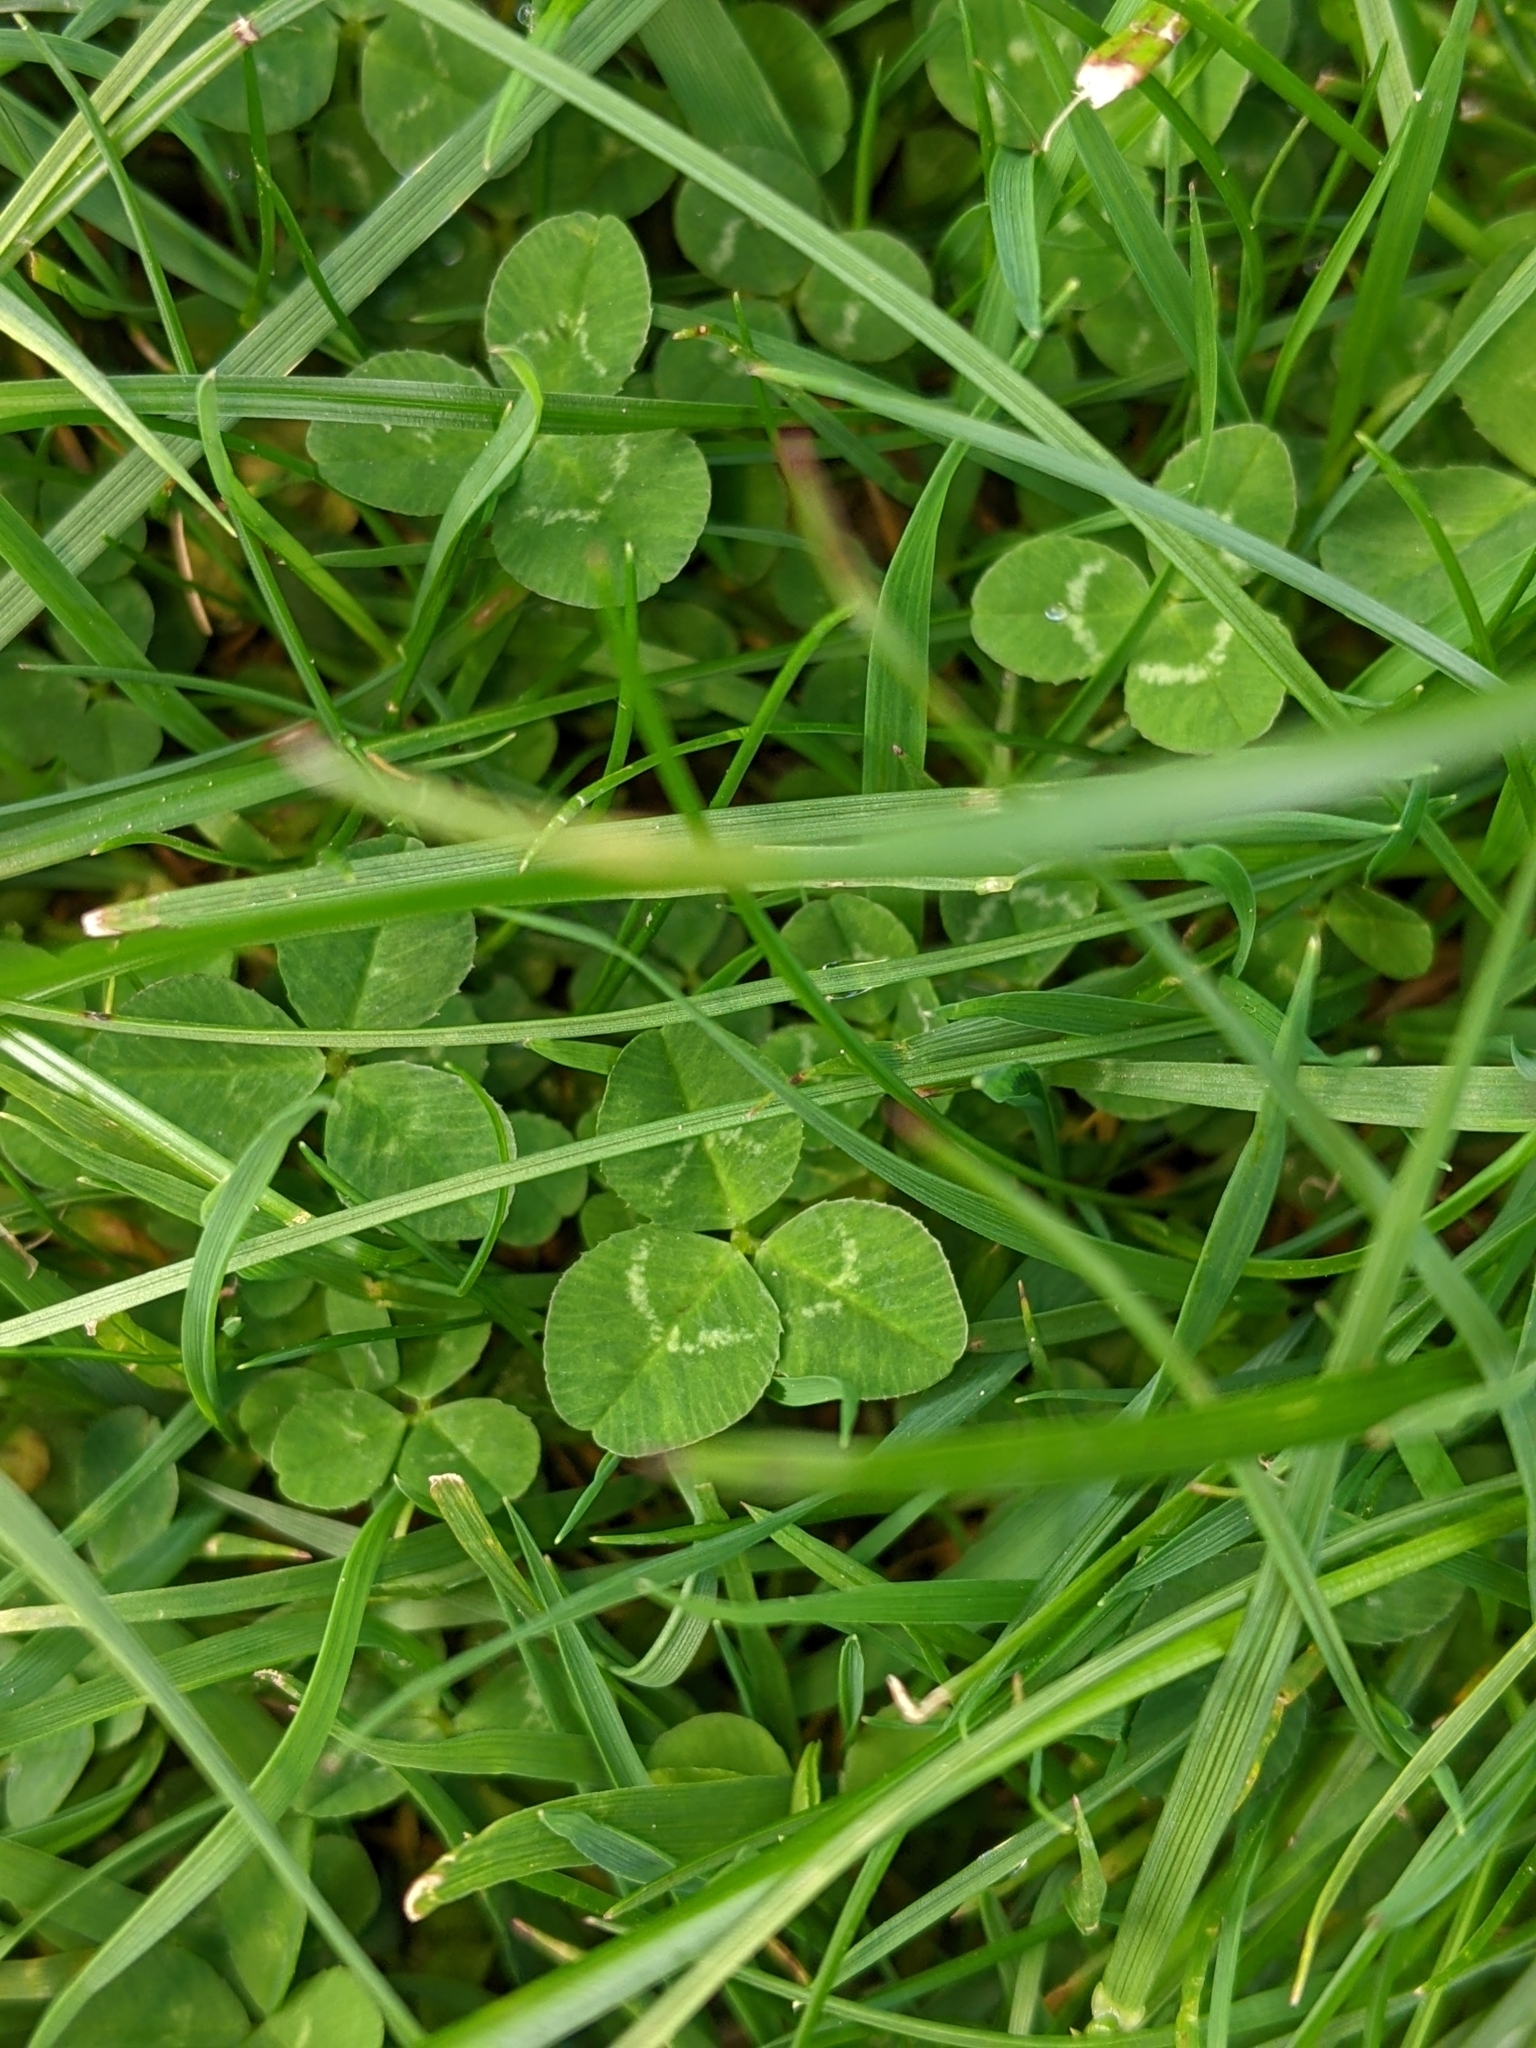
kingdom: Plantae
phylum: Tracheophyta
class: Magnoliopsida
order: Fabales
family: Fabaceae
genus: Trifolium
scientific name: Trifolium repens
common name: White clover
